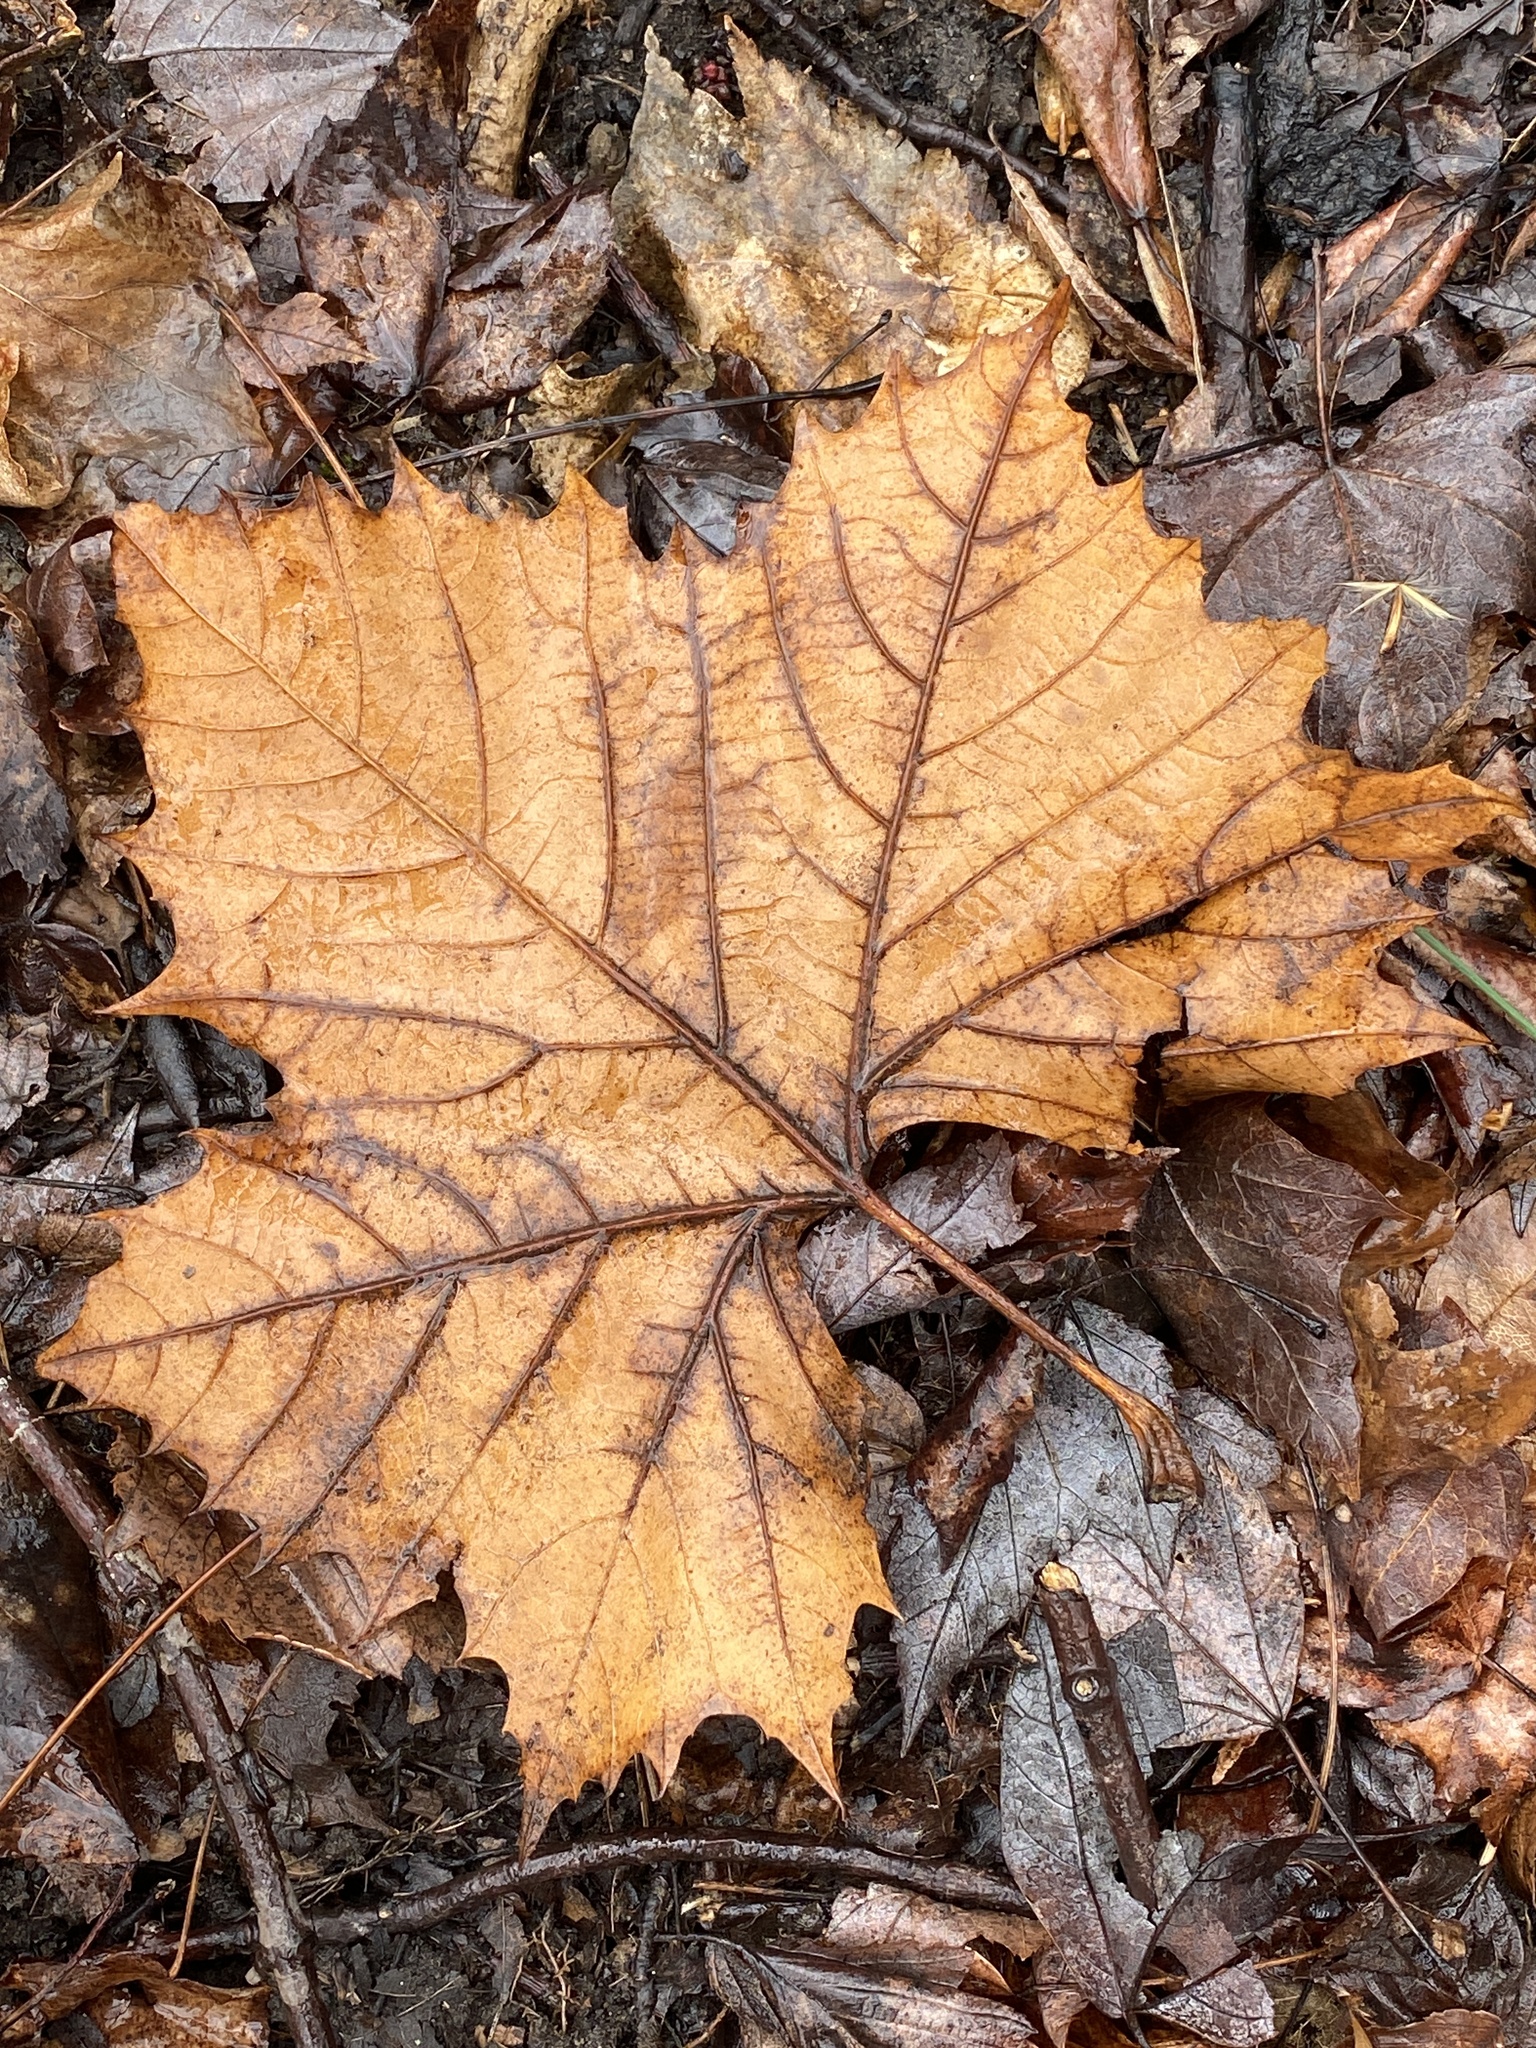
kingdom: Plantae
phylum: Tracheophyta
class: Magnoliopsida
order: Proteales
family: Platanaceae
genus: Platanus
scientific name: Platanus occidentalis
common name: American sycamore
